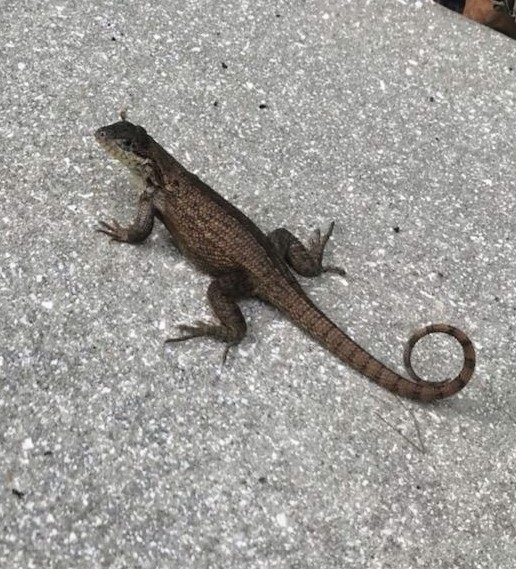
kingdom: Animalia
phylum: Chordata
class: Squamata
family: Leiocephalidae
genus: Leiocephalus
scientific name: Leiocephalus carinatus
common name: Northern curly-tailed lizard
